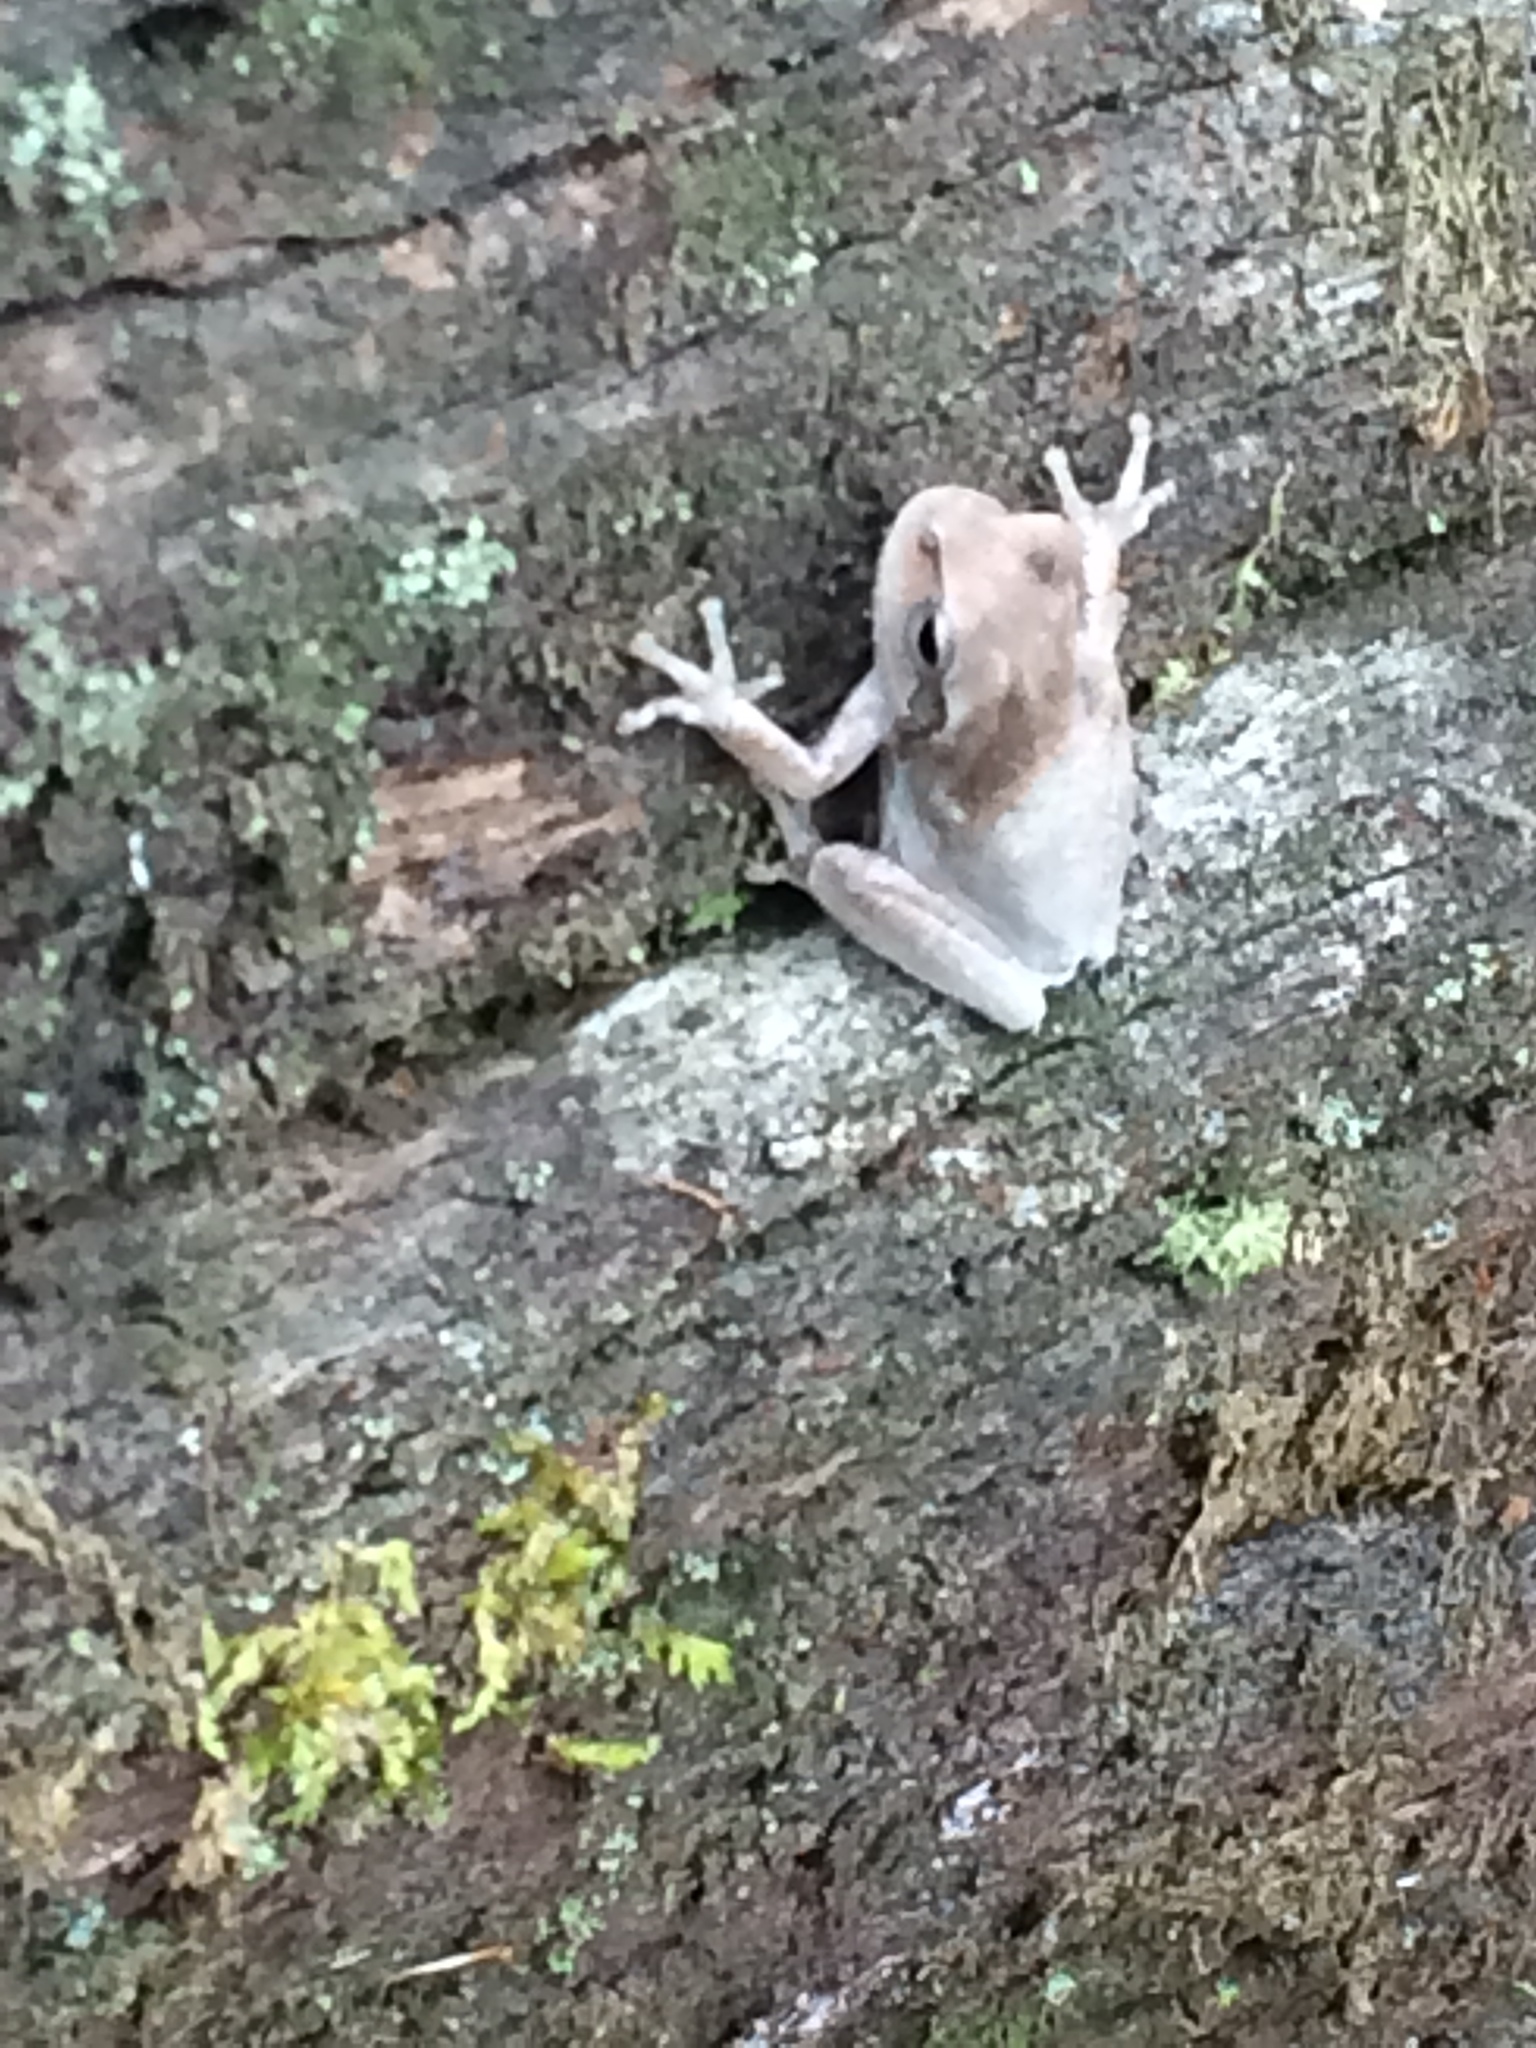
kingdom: Animalia
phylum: Chordata
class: Amphibia
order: Anura
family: Hylidae
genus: Hyla
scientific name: Hyla femoralis
